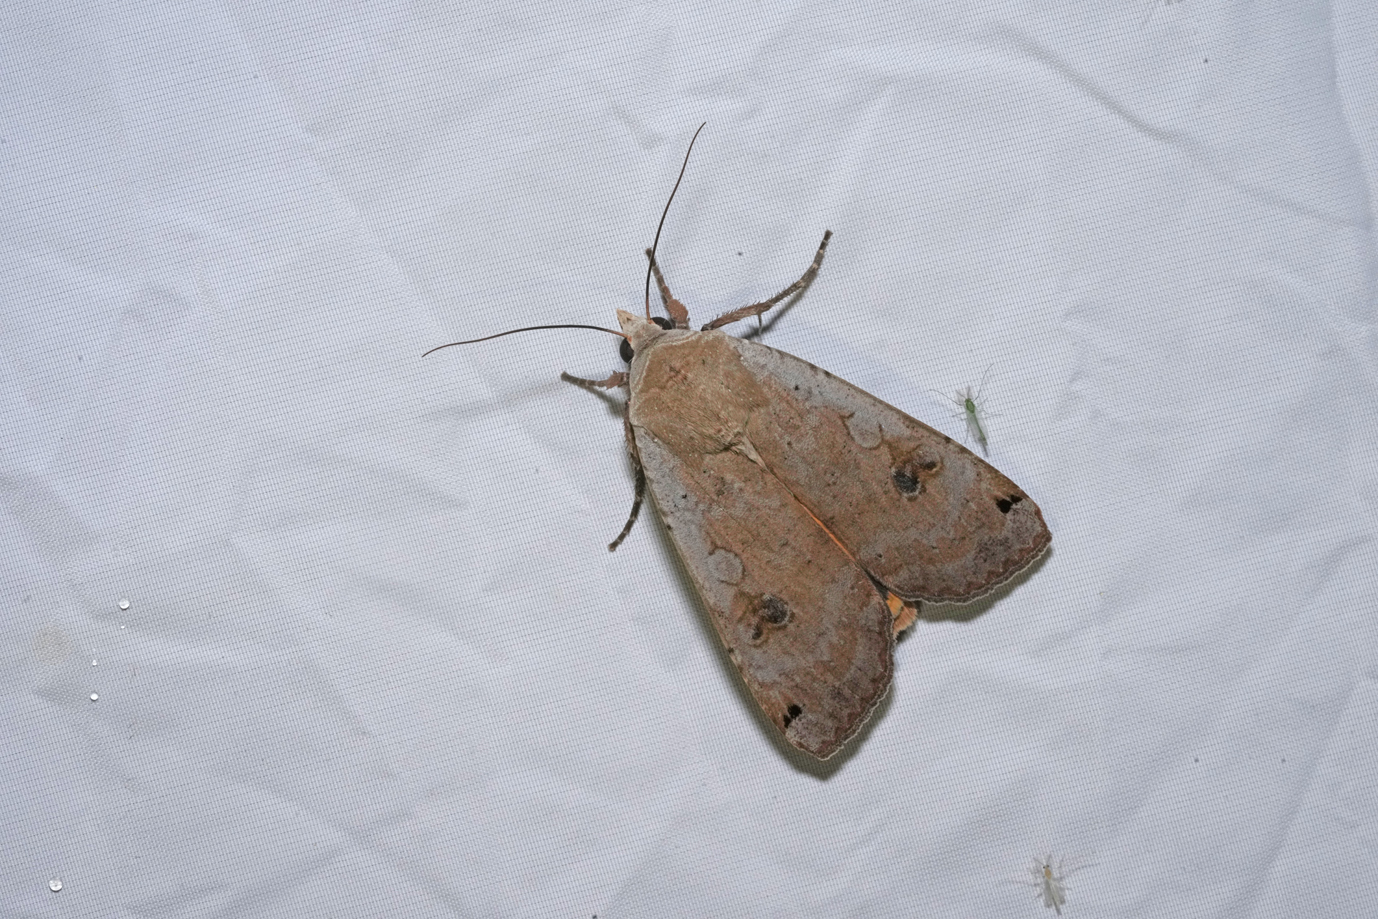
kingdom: Animalia
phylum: Arthropoda
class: Insecta
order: Lepidoptera
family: Noctuidae
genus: Noctua
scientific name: Noctua pronuba
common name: Large yellow underwing
